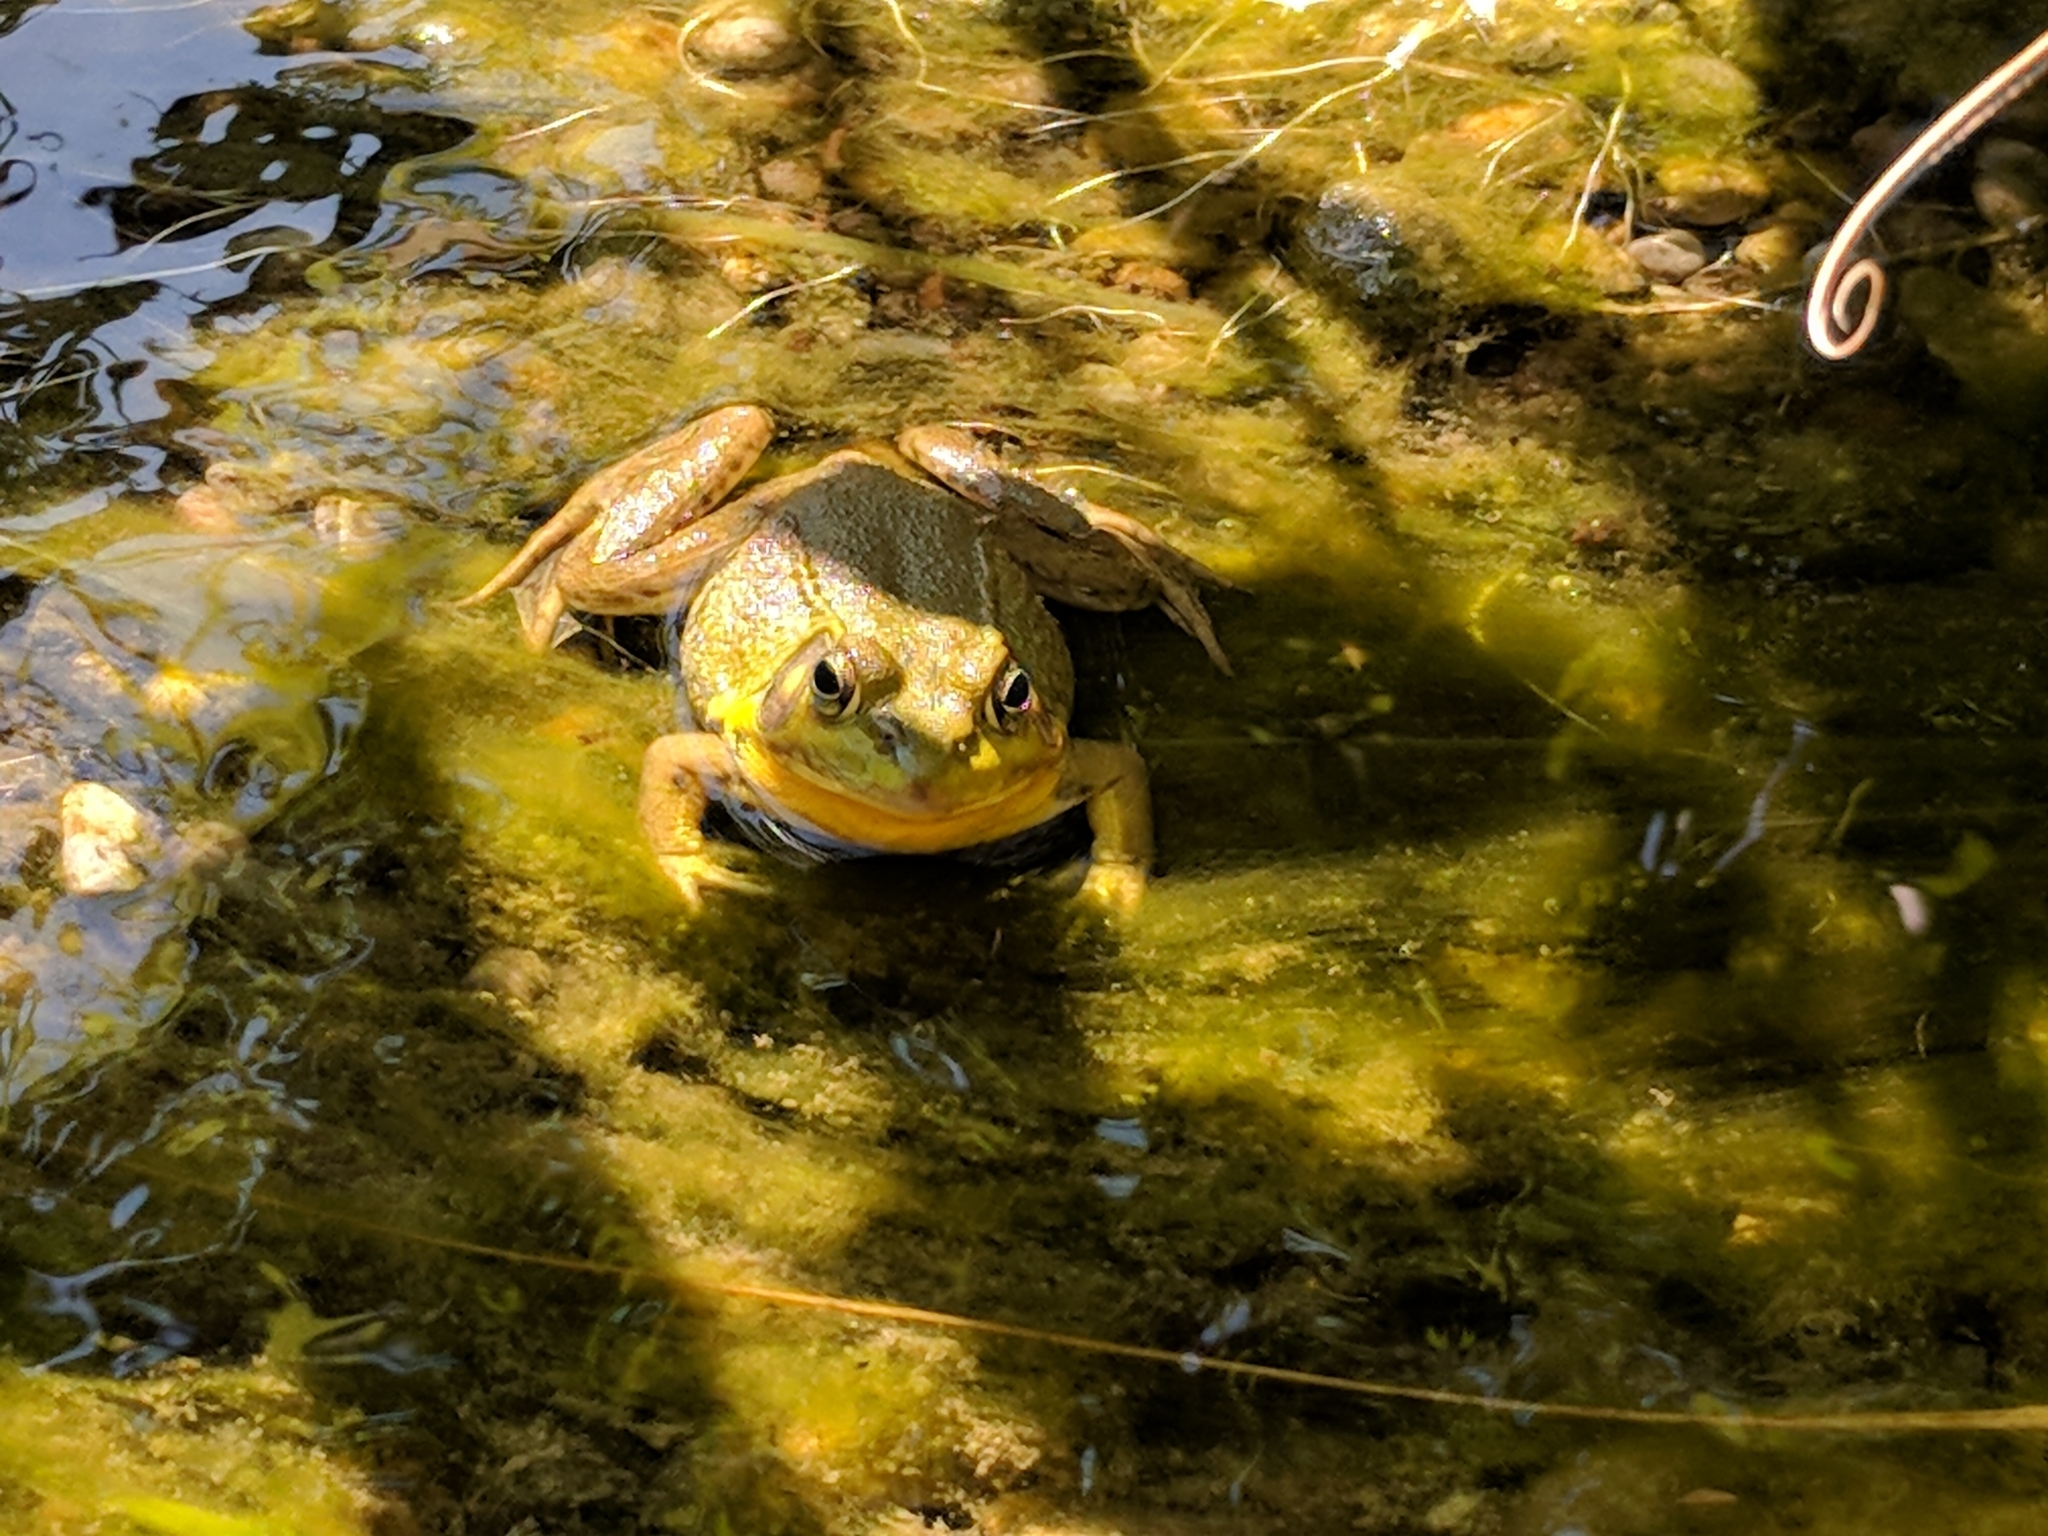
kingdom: Animalia
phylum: Chordata
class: Amphibia
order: Anura
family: Ranidae
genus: Lithobates
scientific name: Lithobates clamitans
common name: Green frog
